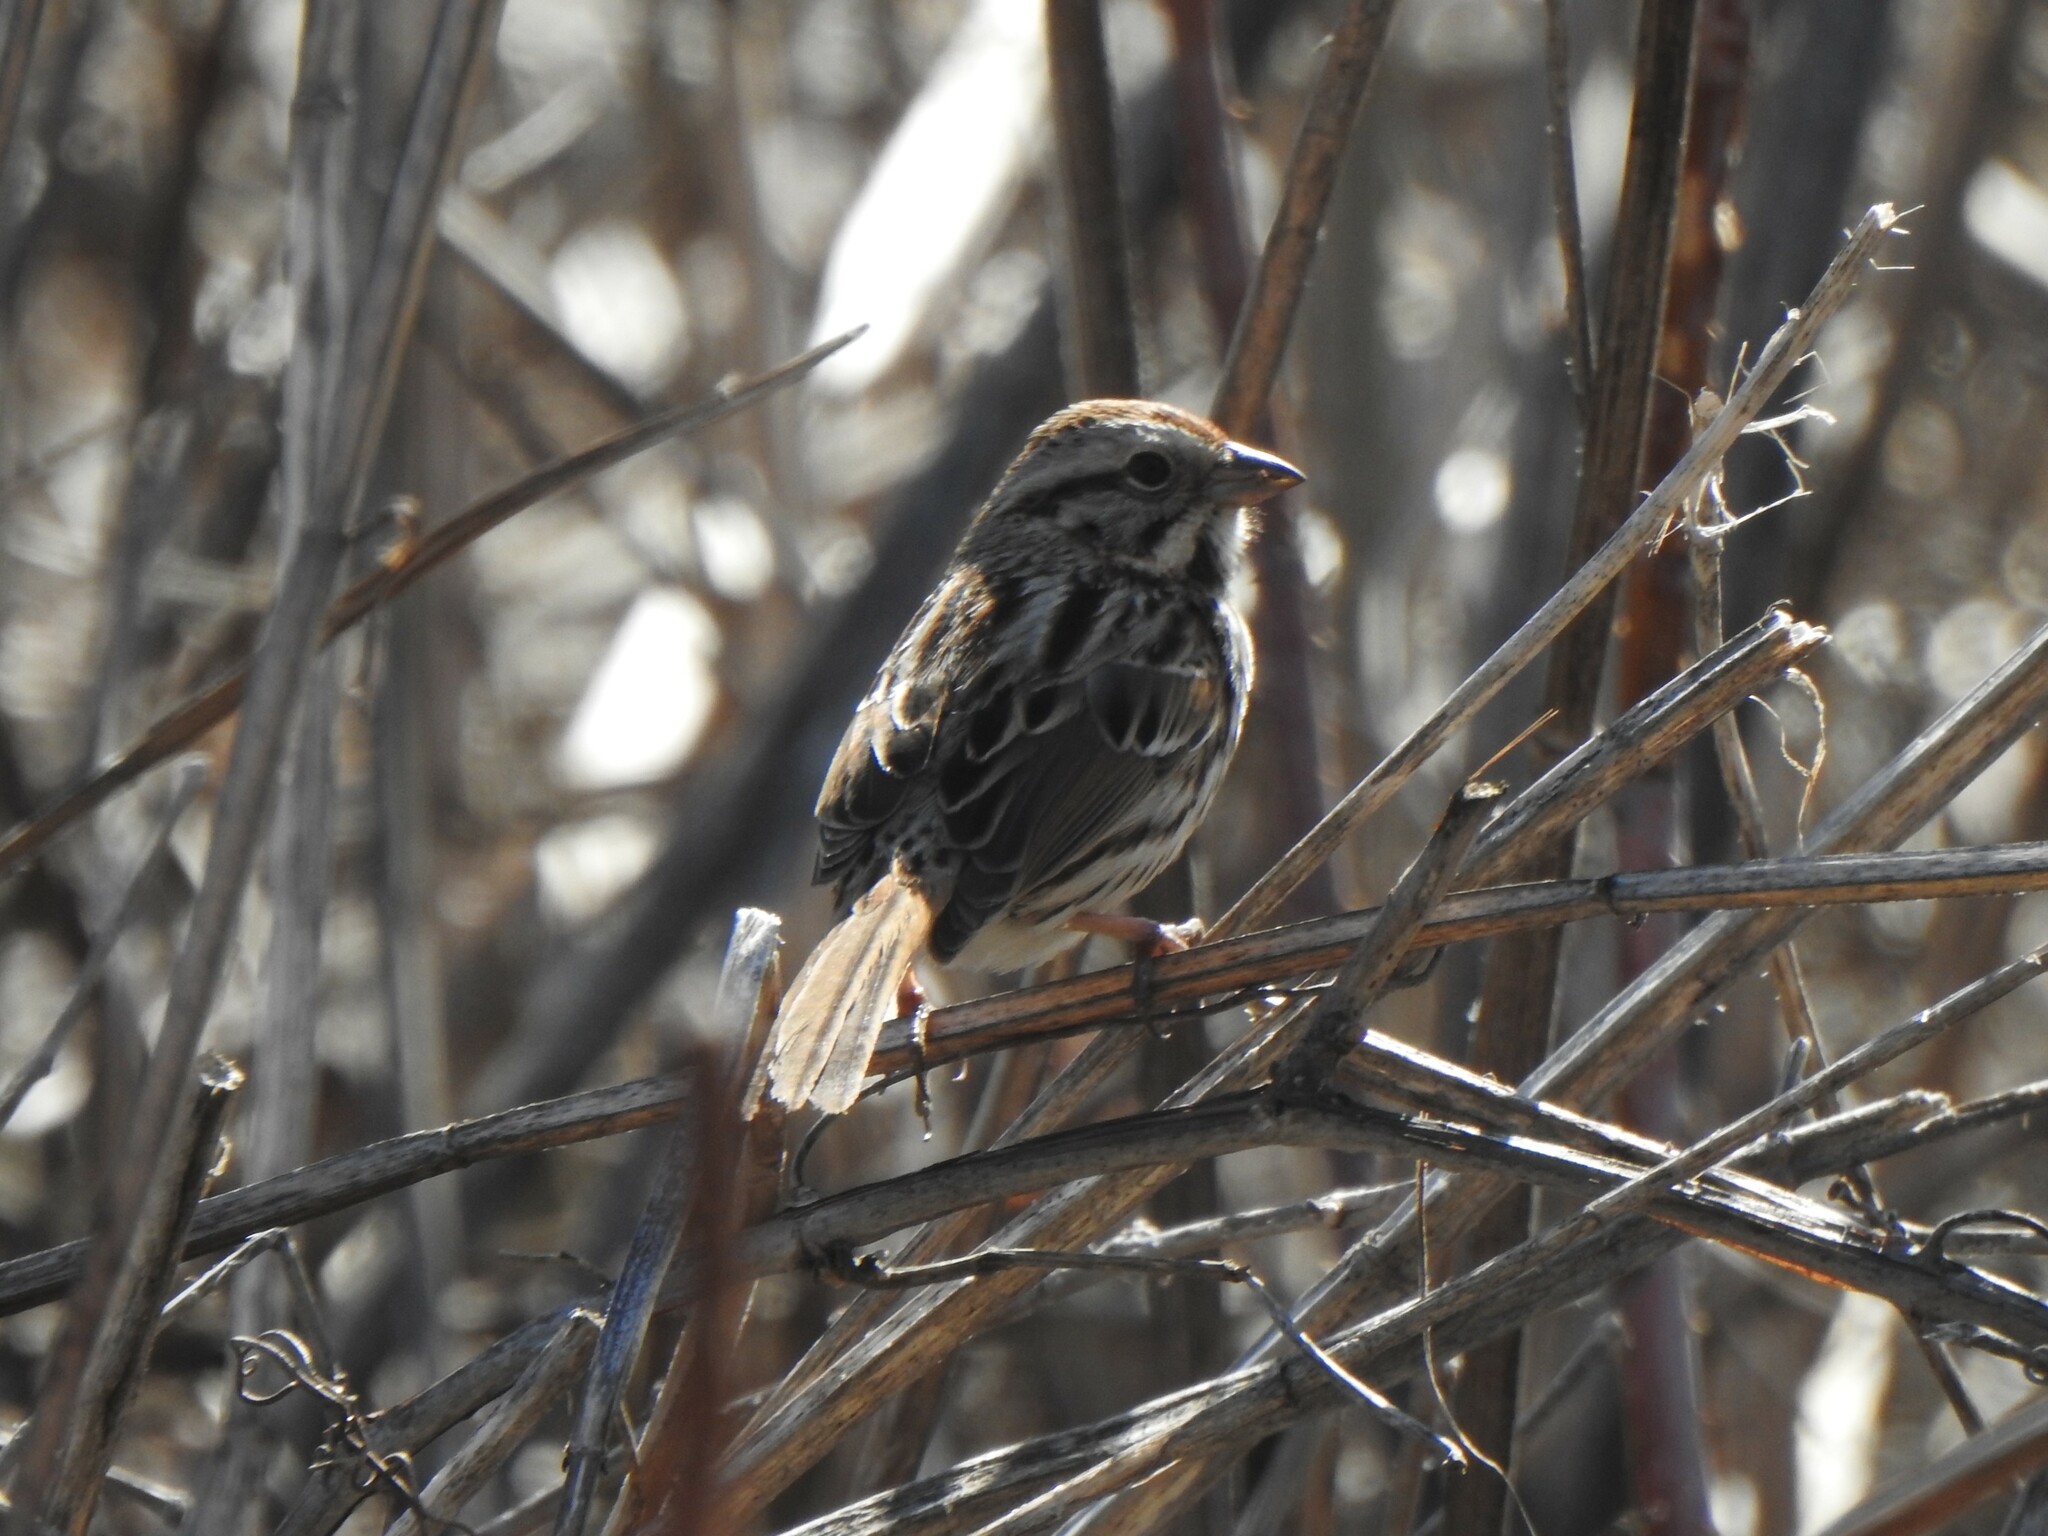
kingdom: Animalia
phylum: Chordata
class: Aves
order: Passeriformes
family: Passerellidae
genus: Melospiza
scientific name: Melospiza melodia
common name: Song sparrow
